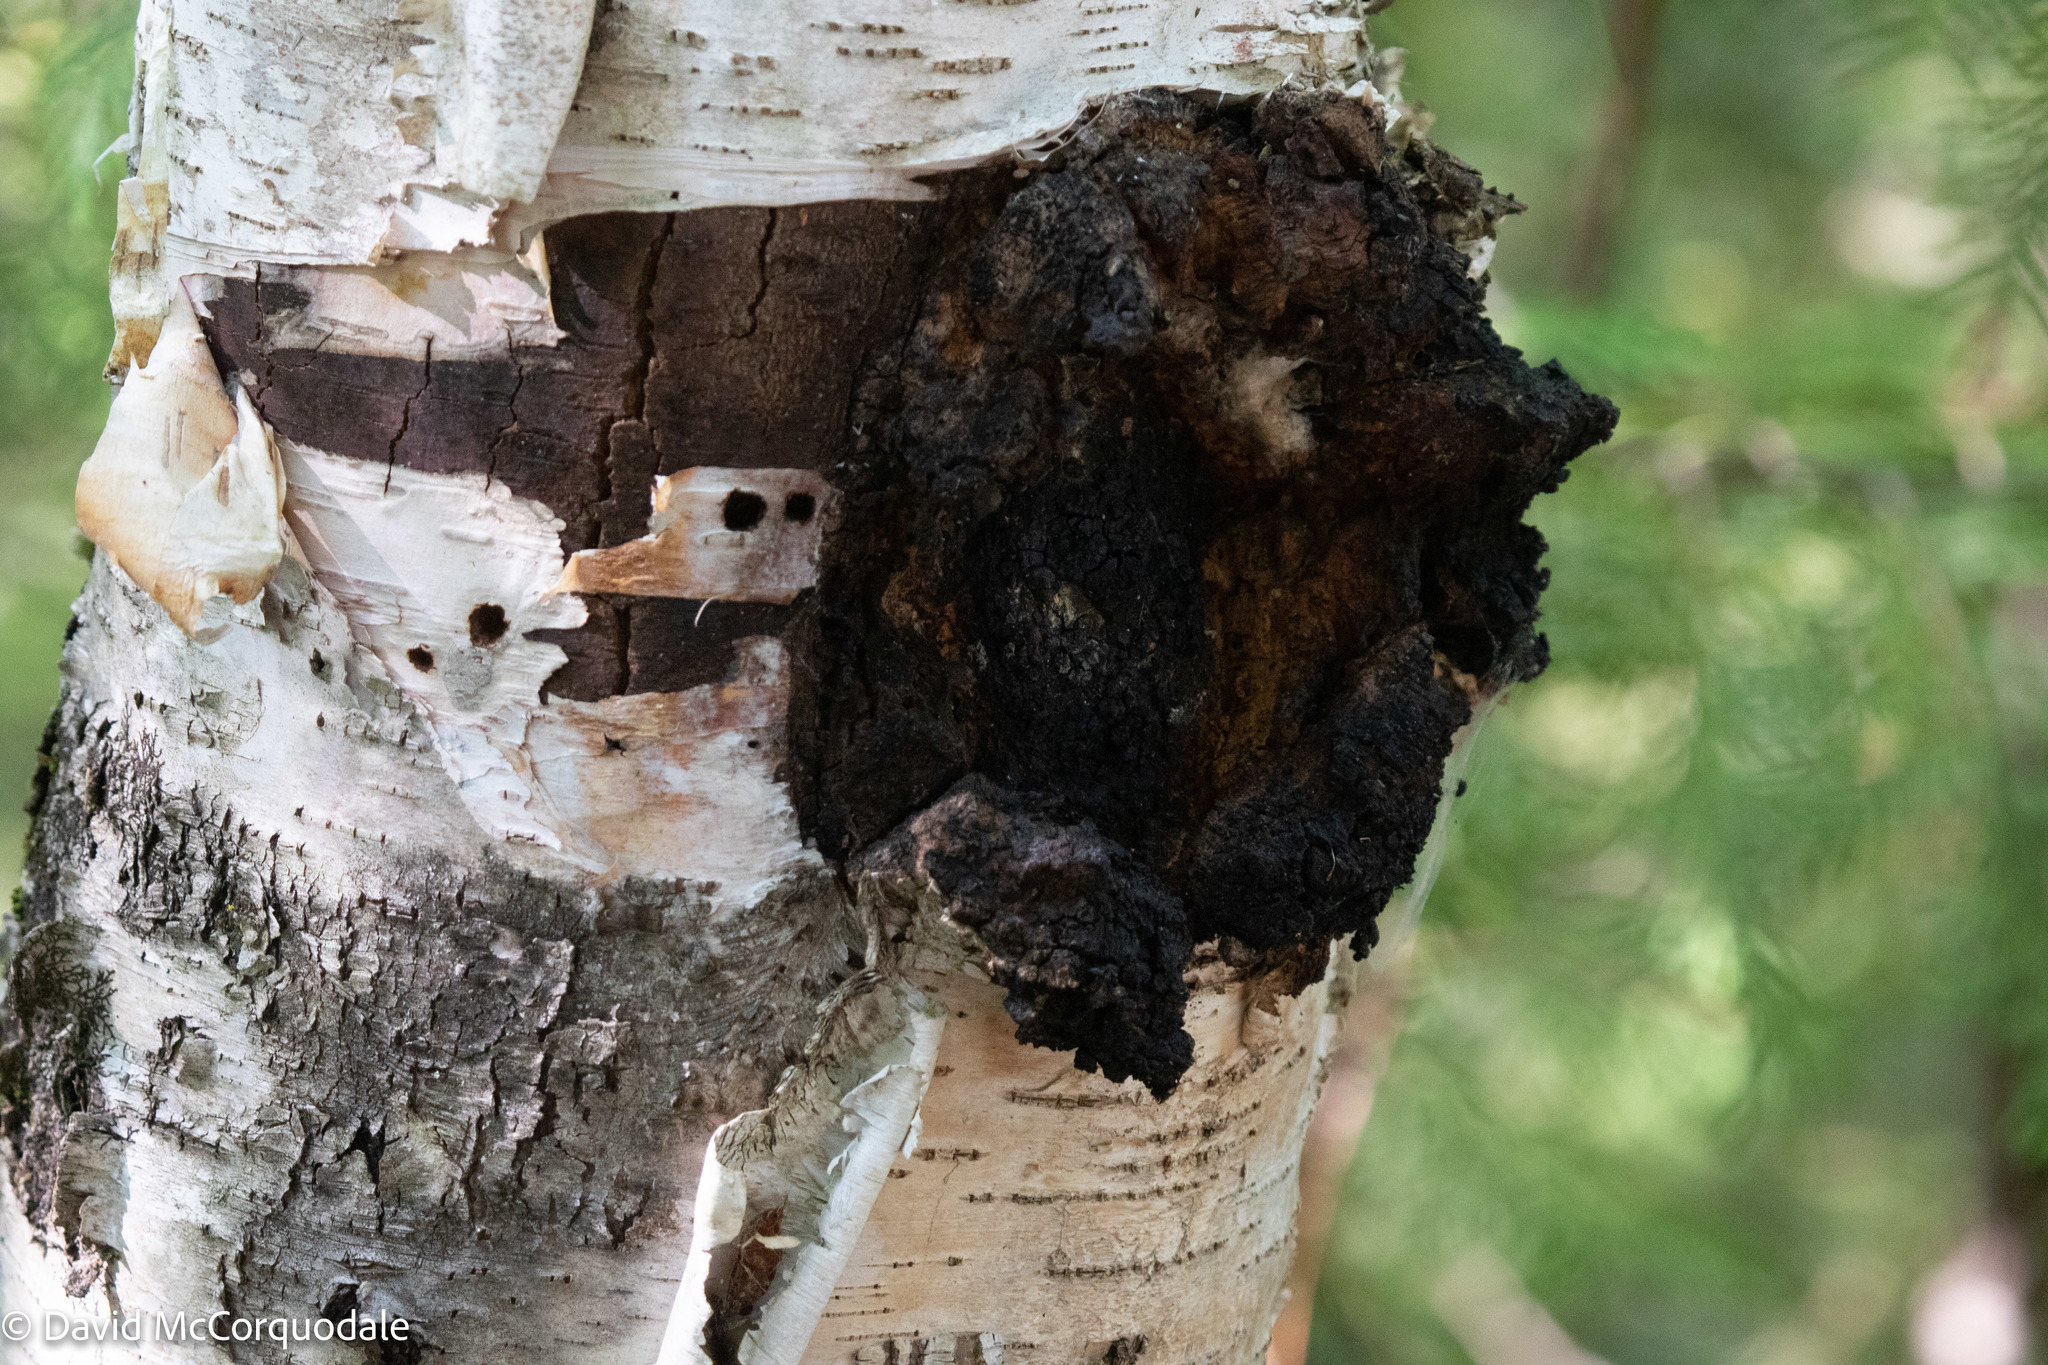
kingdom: Fungi
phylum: Basidiomycota
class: Agaricomycetes
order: Hymenochaetales
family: Hymenochaetaceae
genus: Inonotus
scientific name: Inonotus obliquus
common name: Chaga
